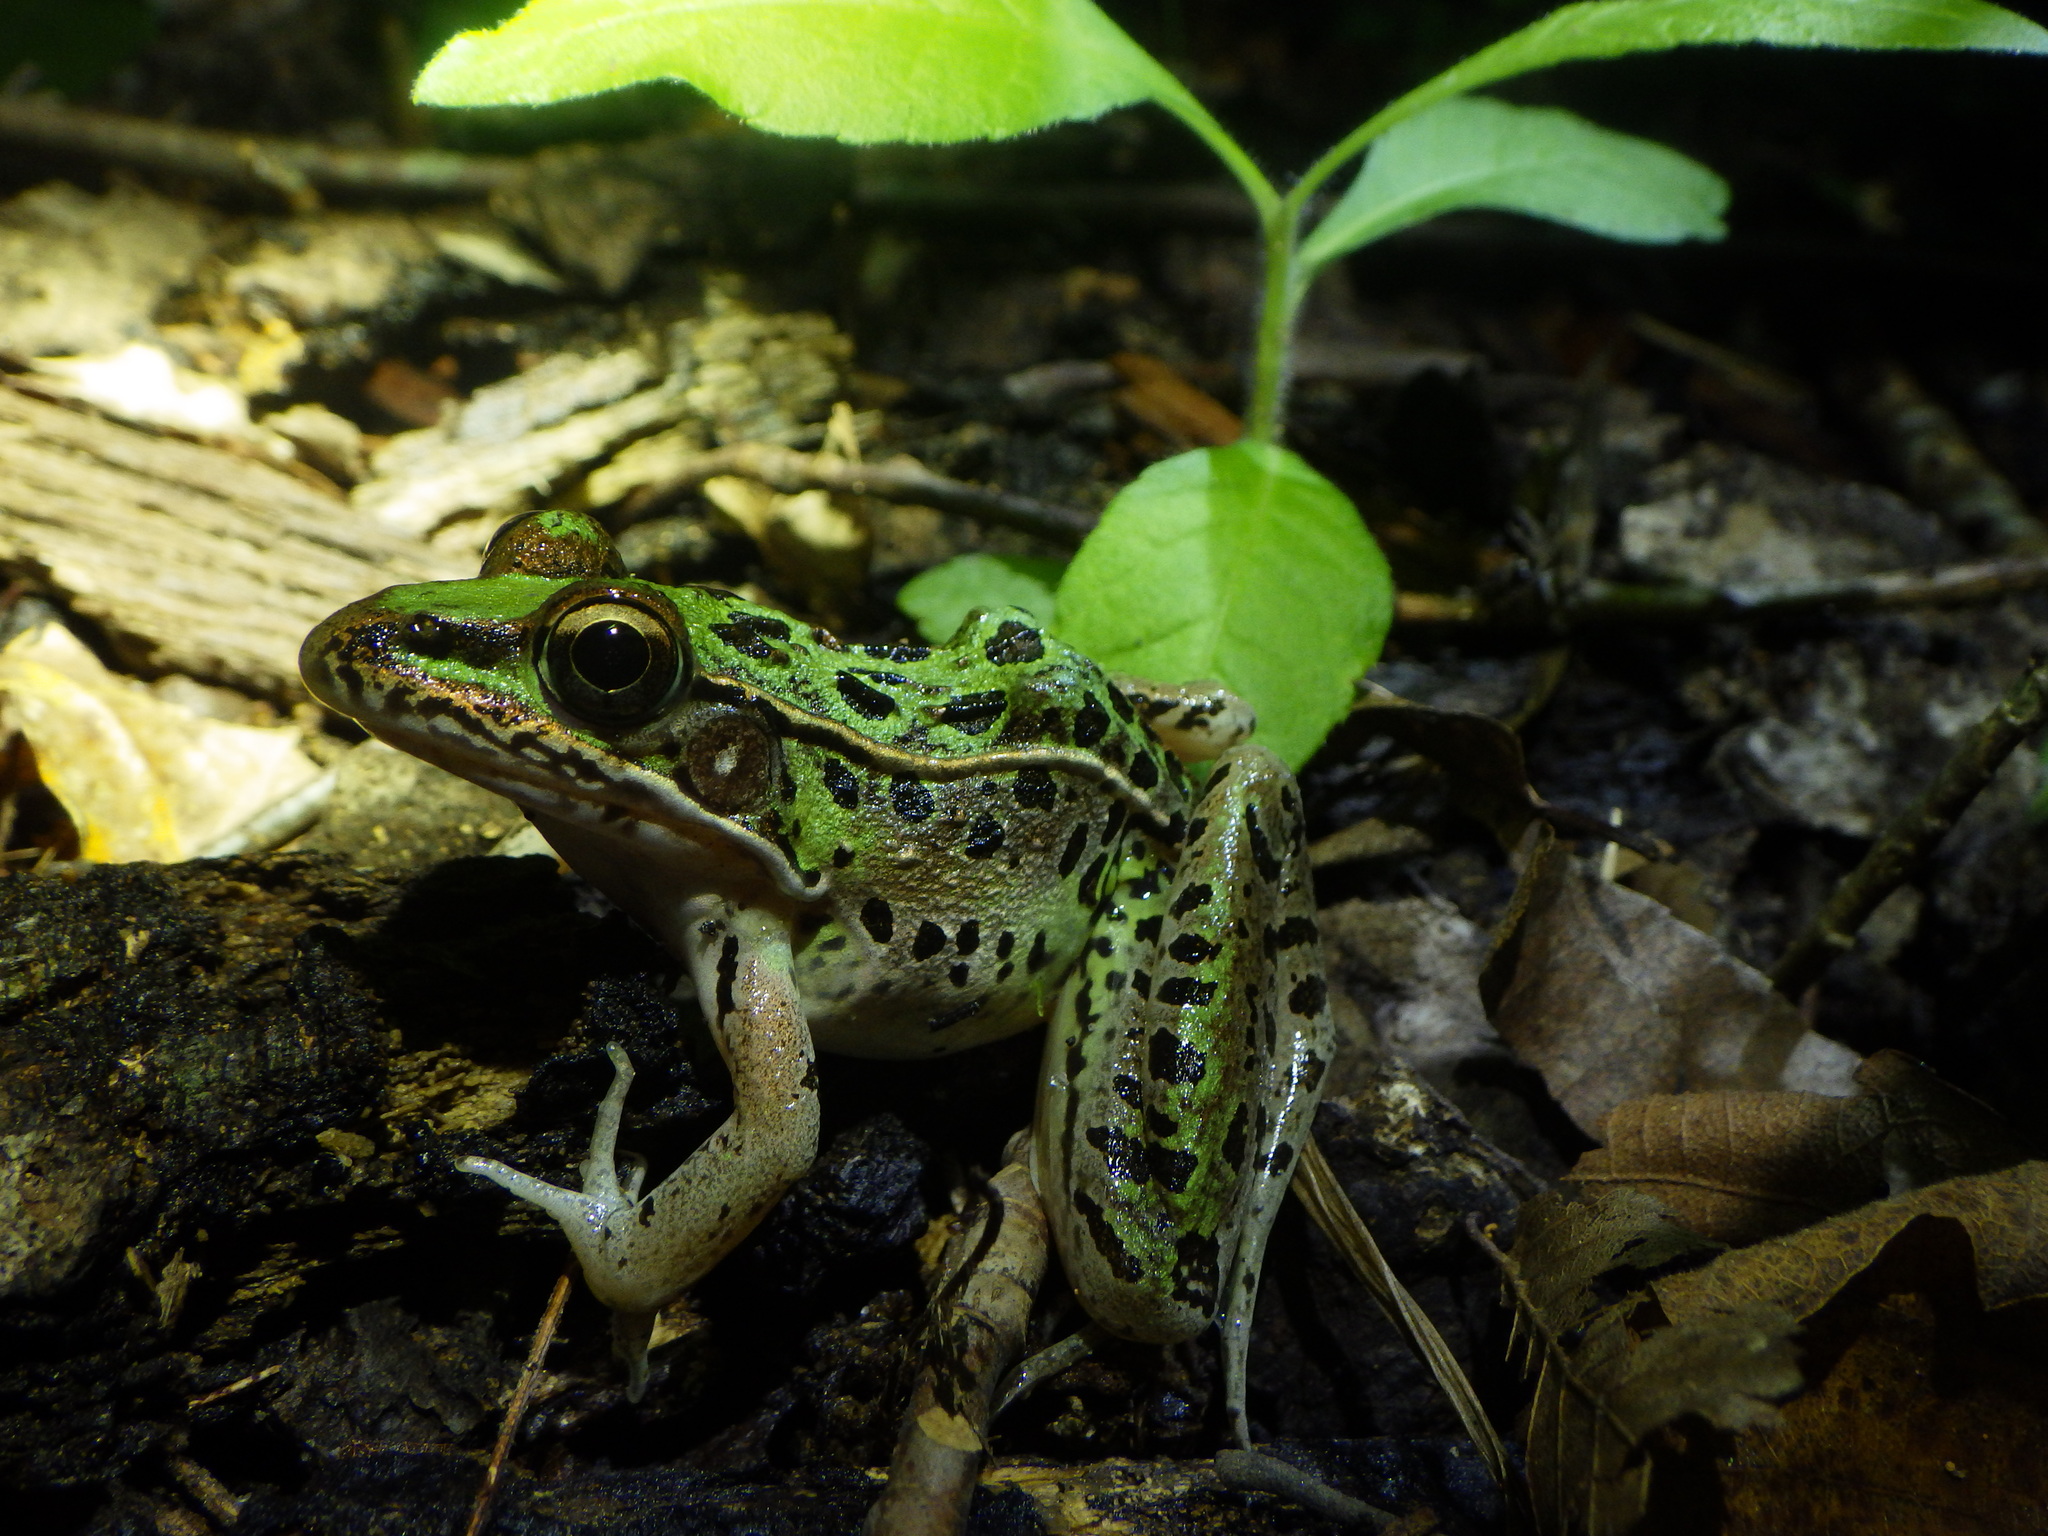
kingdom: Animalia
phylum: Chordata
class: Amphibia
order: Anura
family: Ranidae
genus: Lithobates
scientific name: Lithobates sphenocephalus
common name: Southern leopard frog
